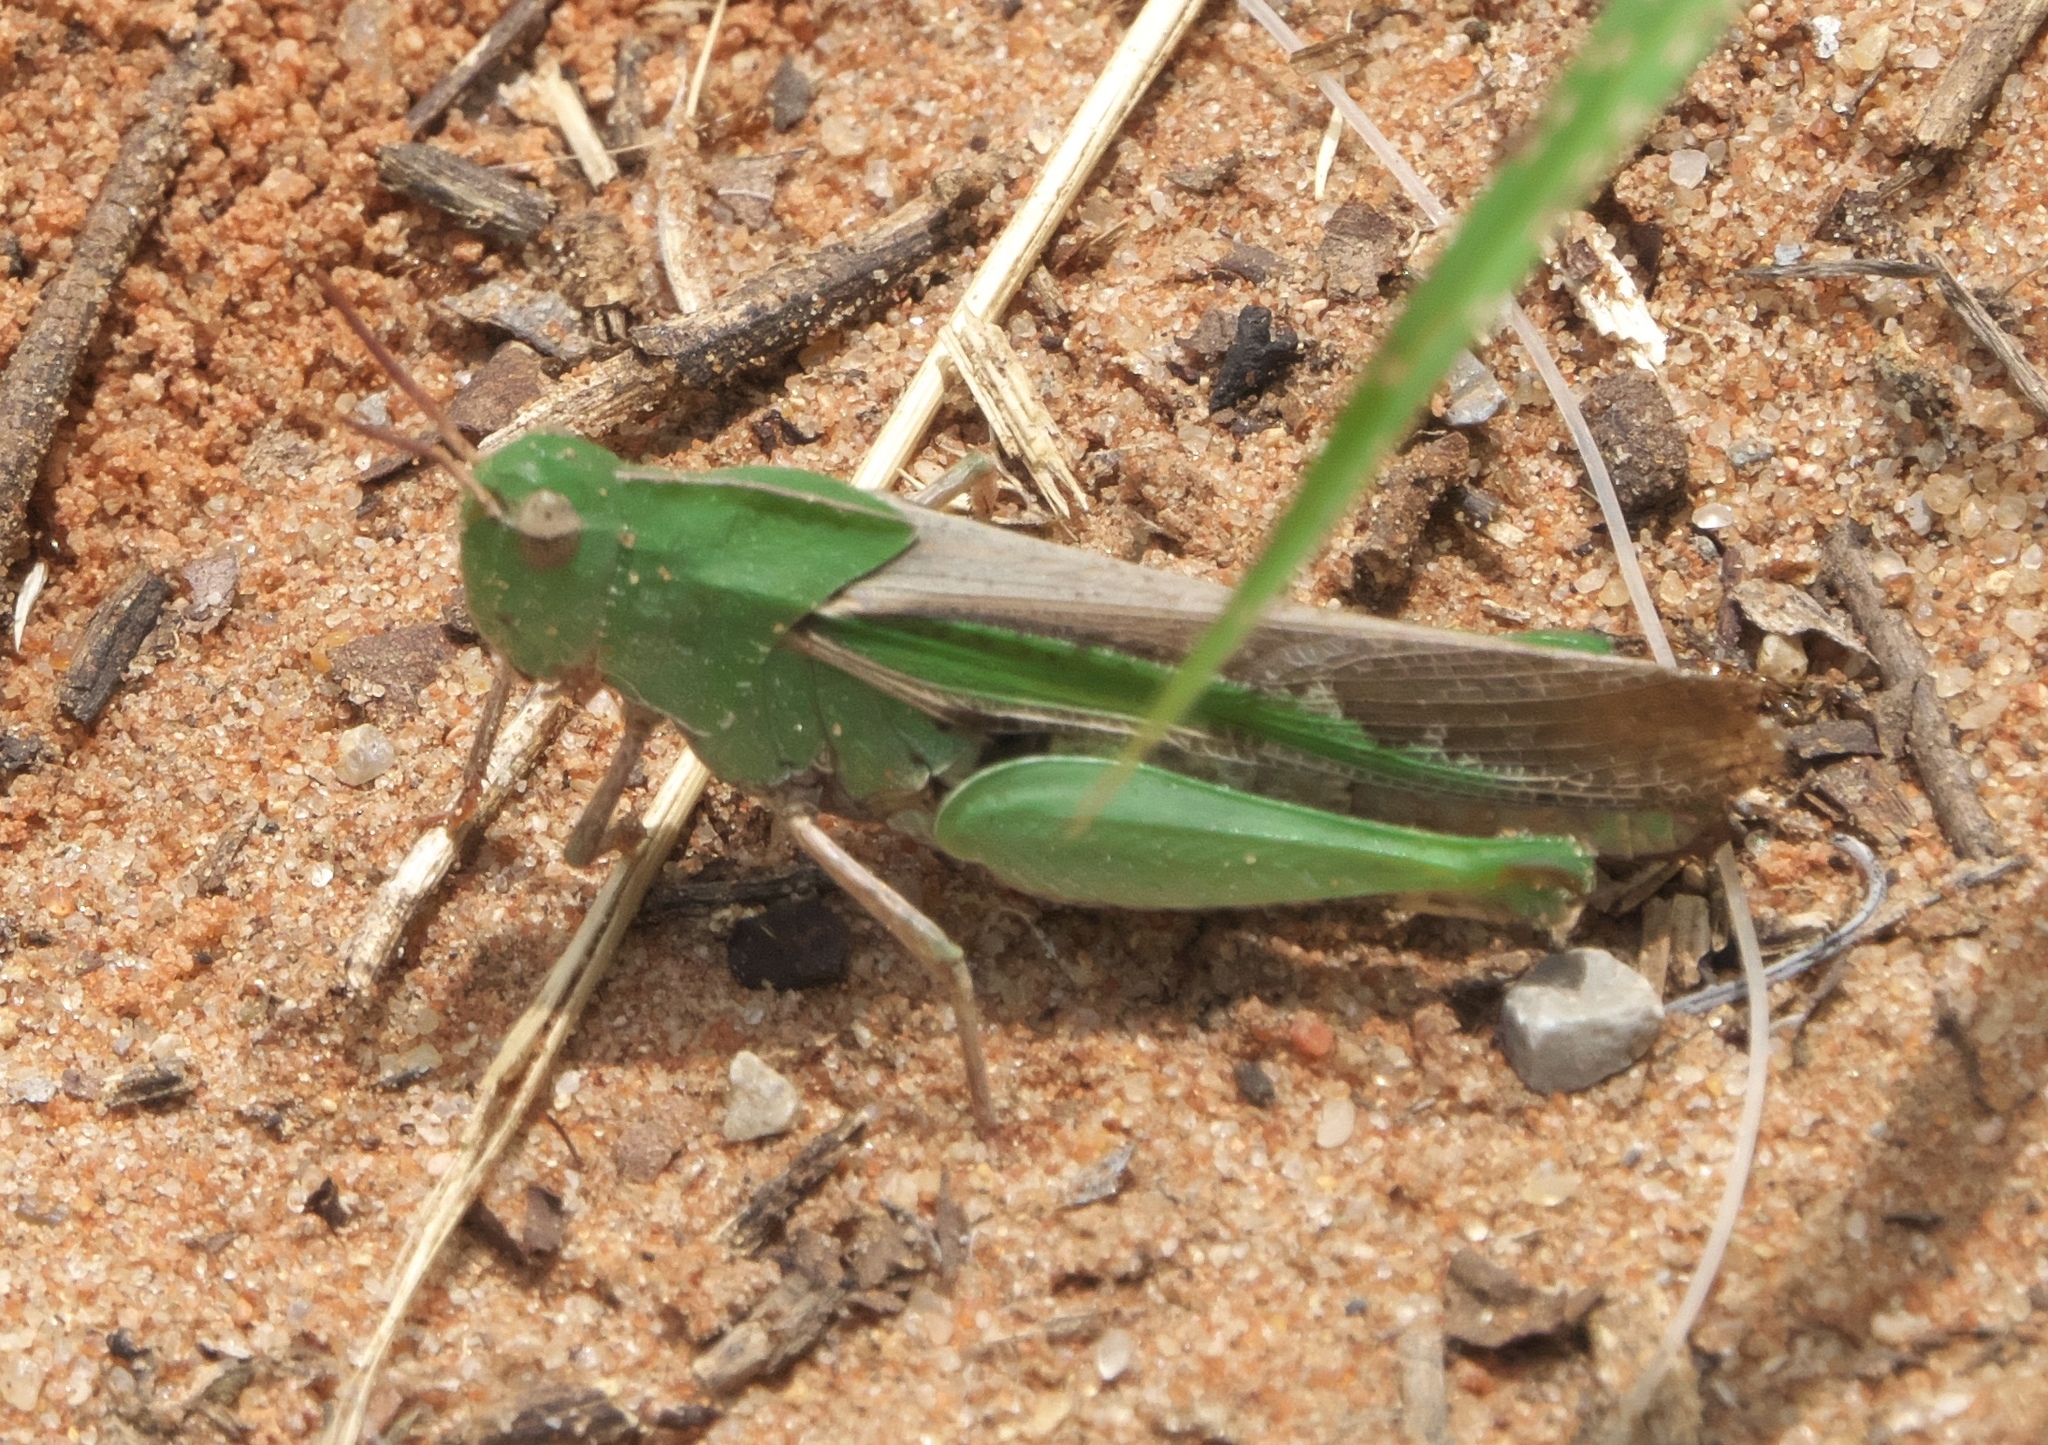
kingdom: Animalia
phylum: Arthropoda
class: Insecta
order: Orthoptera
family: Acrididae
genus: Chortophaga
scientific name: Chortophaga viridifasciata
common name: Green-striped grasshopper
